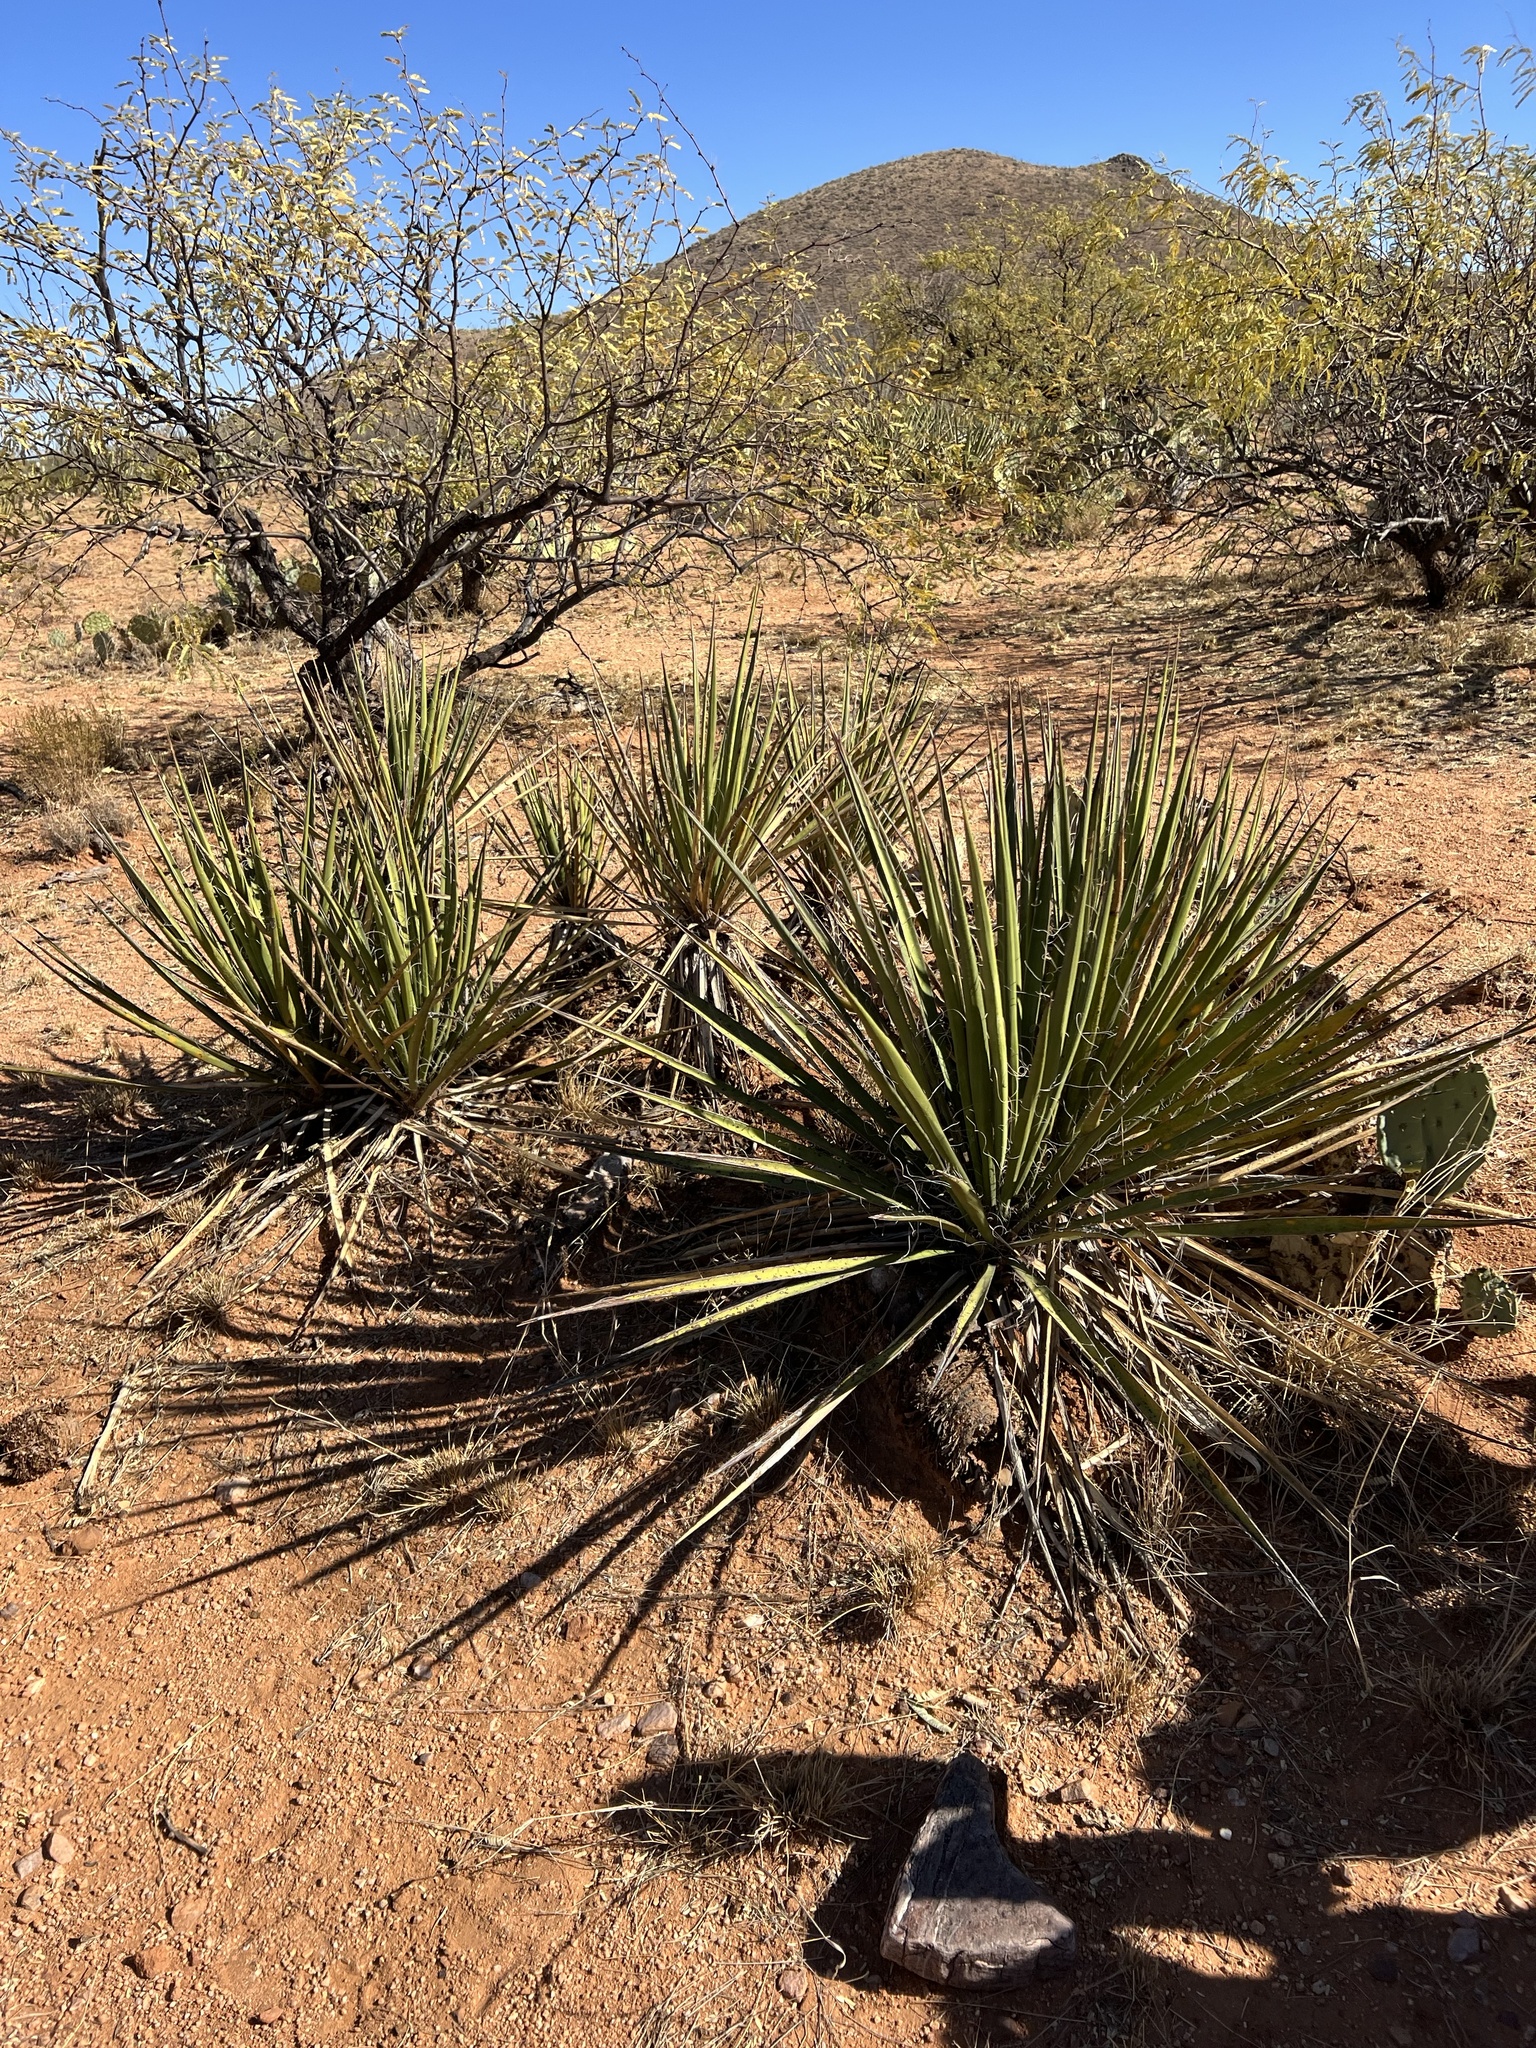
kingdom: Plantae
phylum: Tracheophyta
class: Liliopsida
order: Asparagales
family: Asparagaceae
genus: Yucca
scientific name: Yucca baccata
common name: Banana yucca
